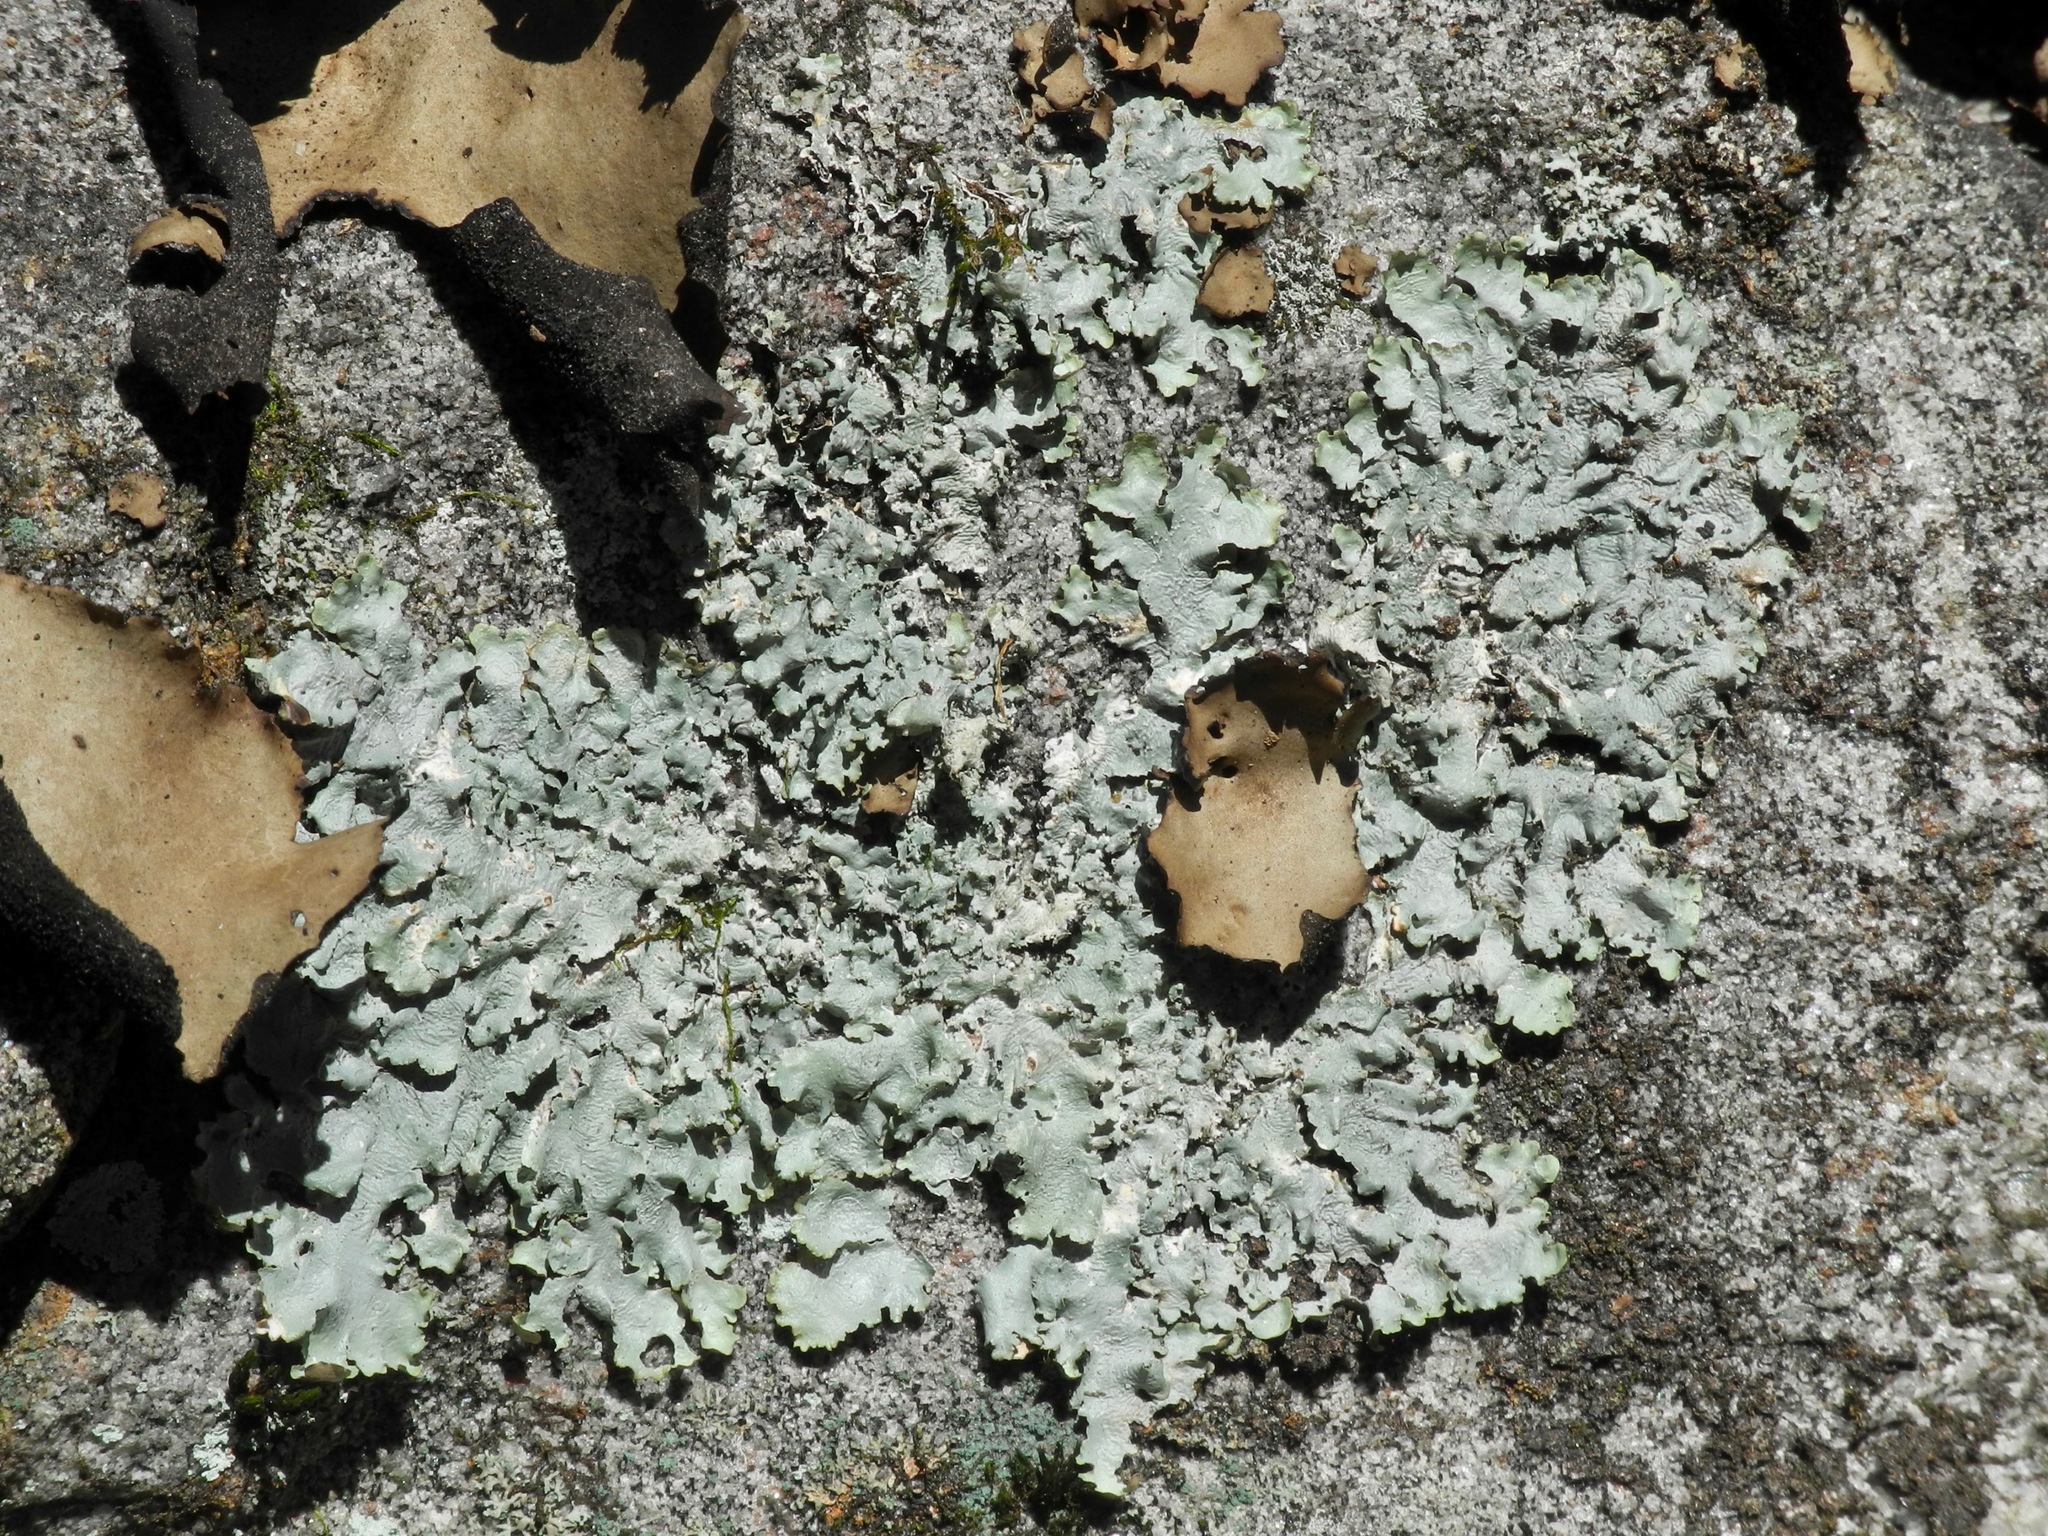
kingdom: Fungi
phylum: Ascomycota
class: Lecanoromycetes
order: Lecanorales
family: Parmeliaceae
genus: Flavoparmelia
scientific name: Flavoparmelia caperata
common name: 40-mile per hour lichen
